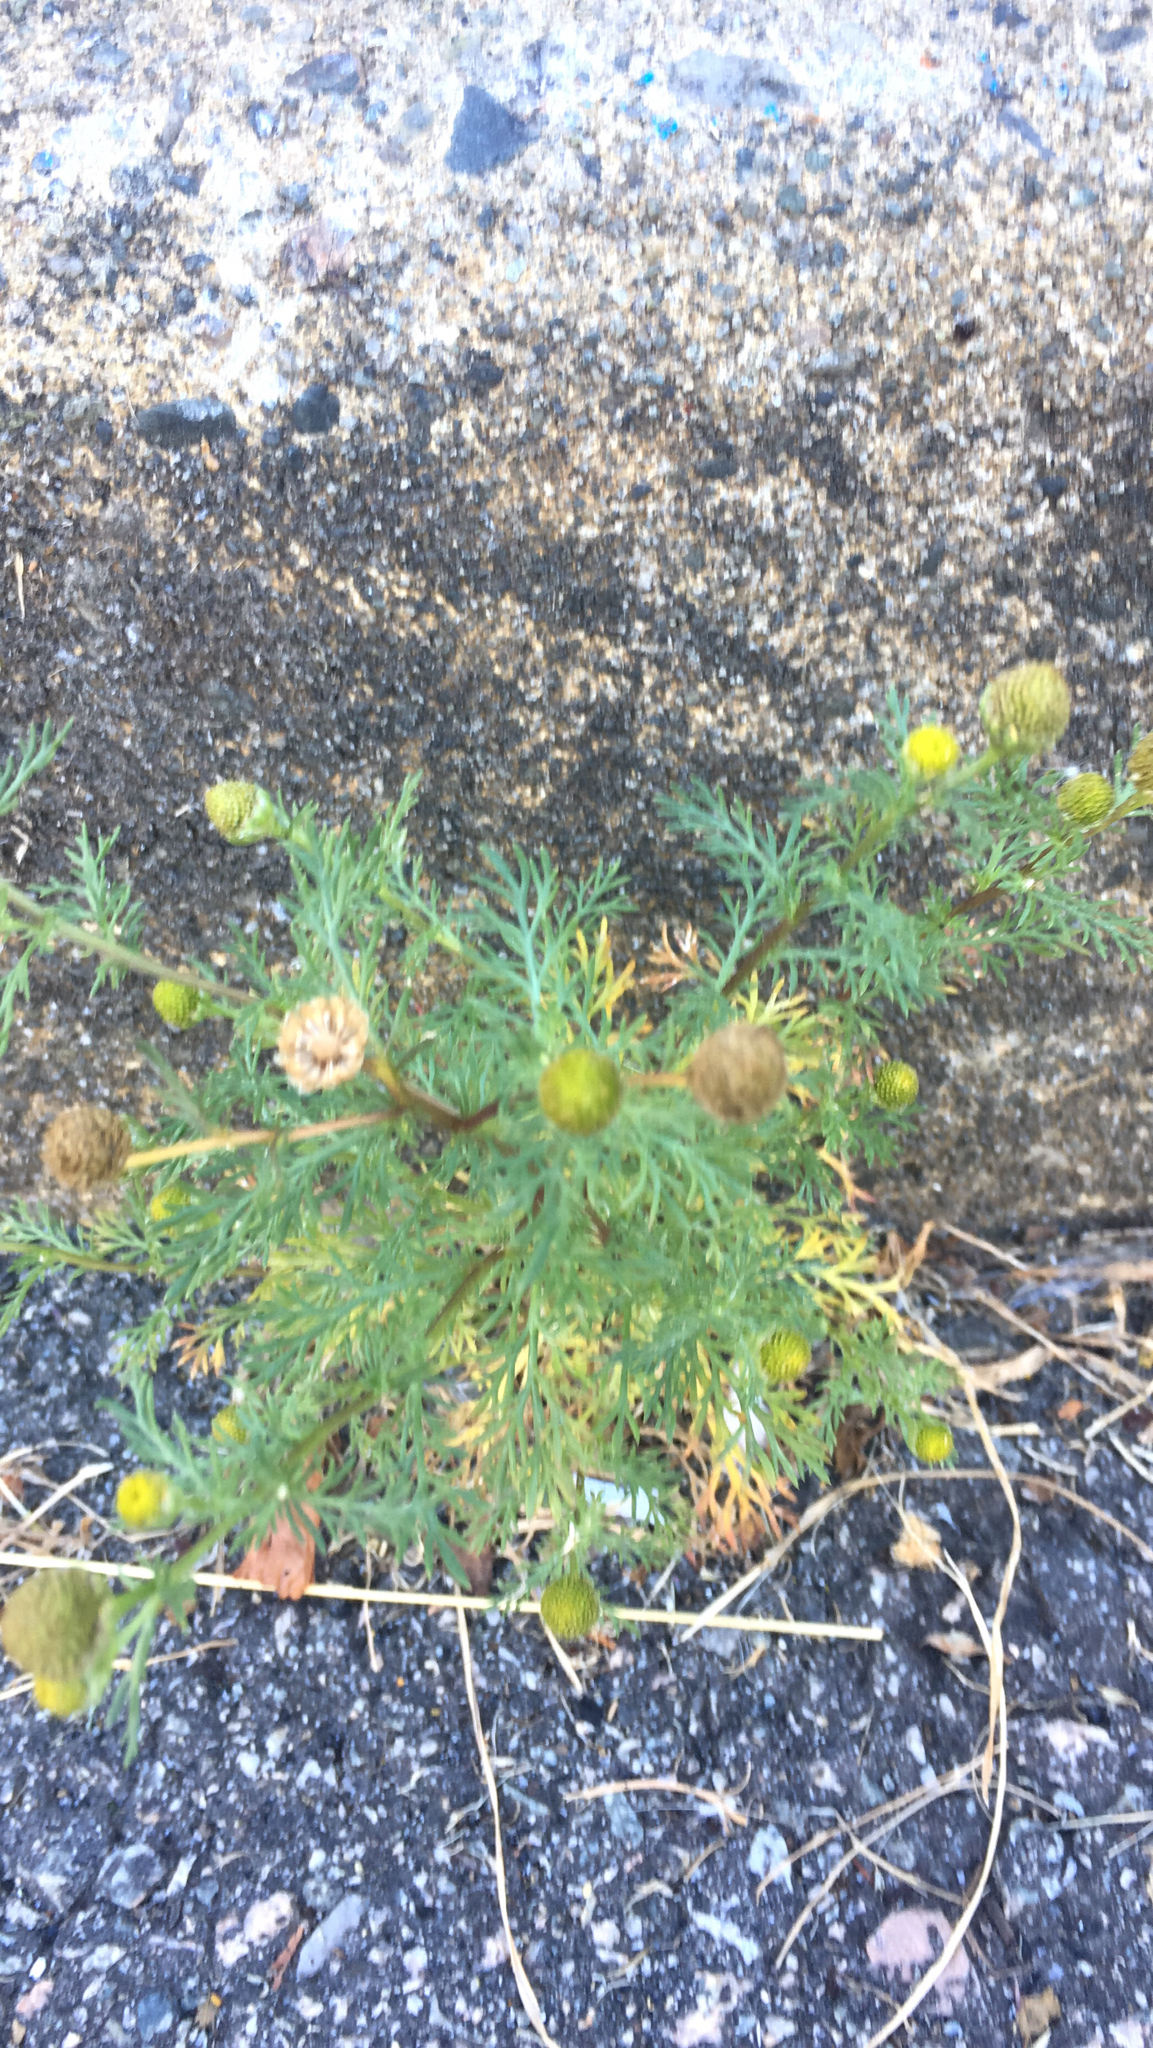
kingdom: Plantae
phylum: Tracheophyta
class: Magnoliopsida
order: Asterales
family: Asteraceae
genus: Matricaria
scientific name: Matricaria discoidea
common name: Disc mayweed
